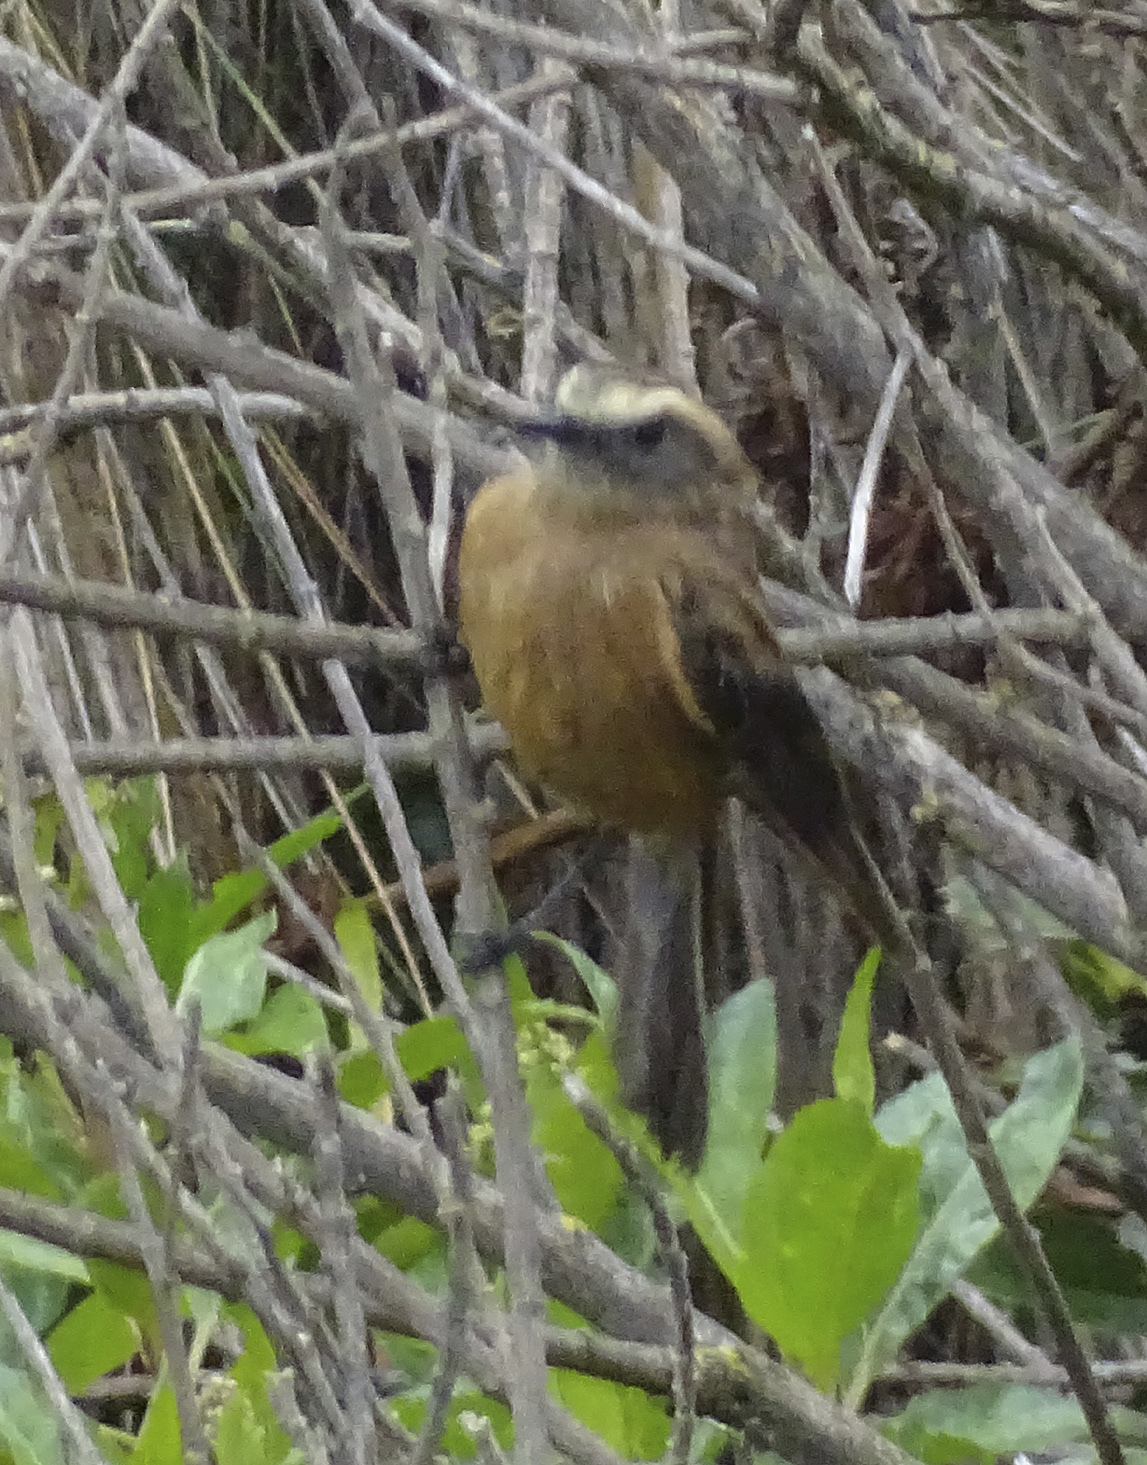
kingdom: Animalia
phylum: Chordata
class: Aves
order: Passeriformes
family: Tyrannidae
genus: Ochthoeca
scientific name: Ochthoeca fumicolor
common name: Brown-backed chat-tyrant
